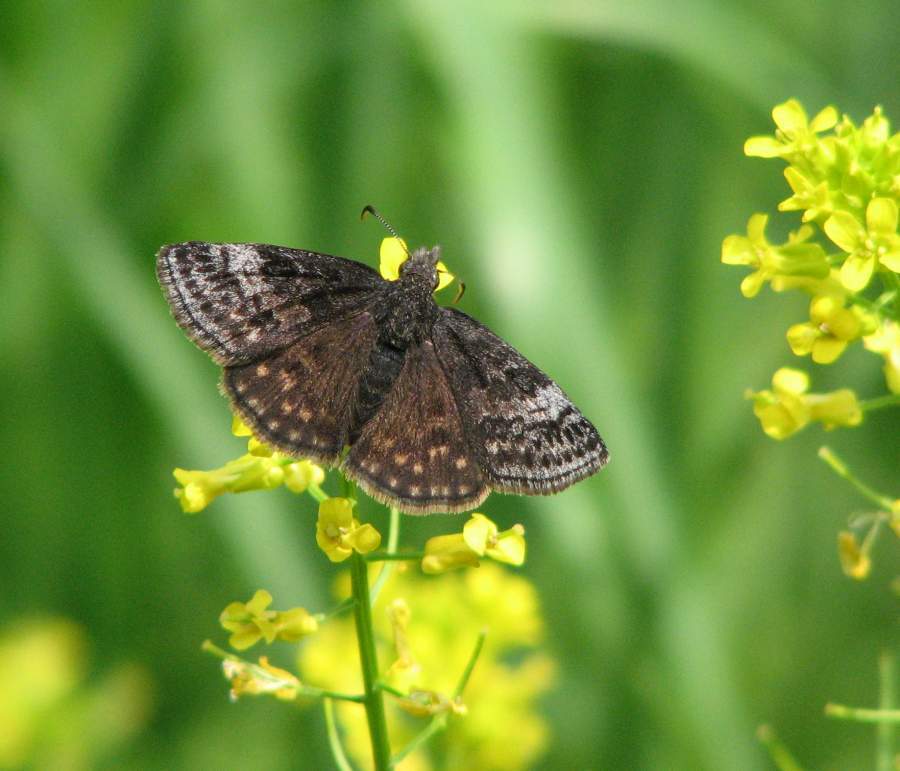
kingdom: Animalia
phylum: Arthropoda
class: Insecta
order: Lepidoptera
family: Hesperiidae
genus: Erynnis
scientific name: Erynnis icelus
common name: Dreamy duskywing
